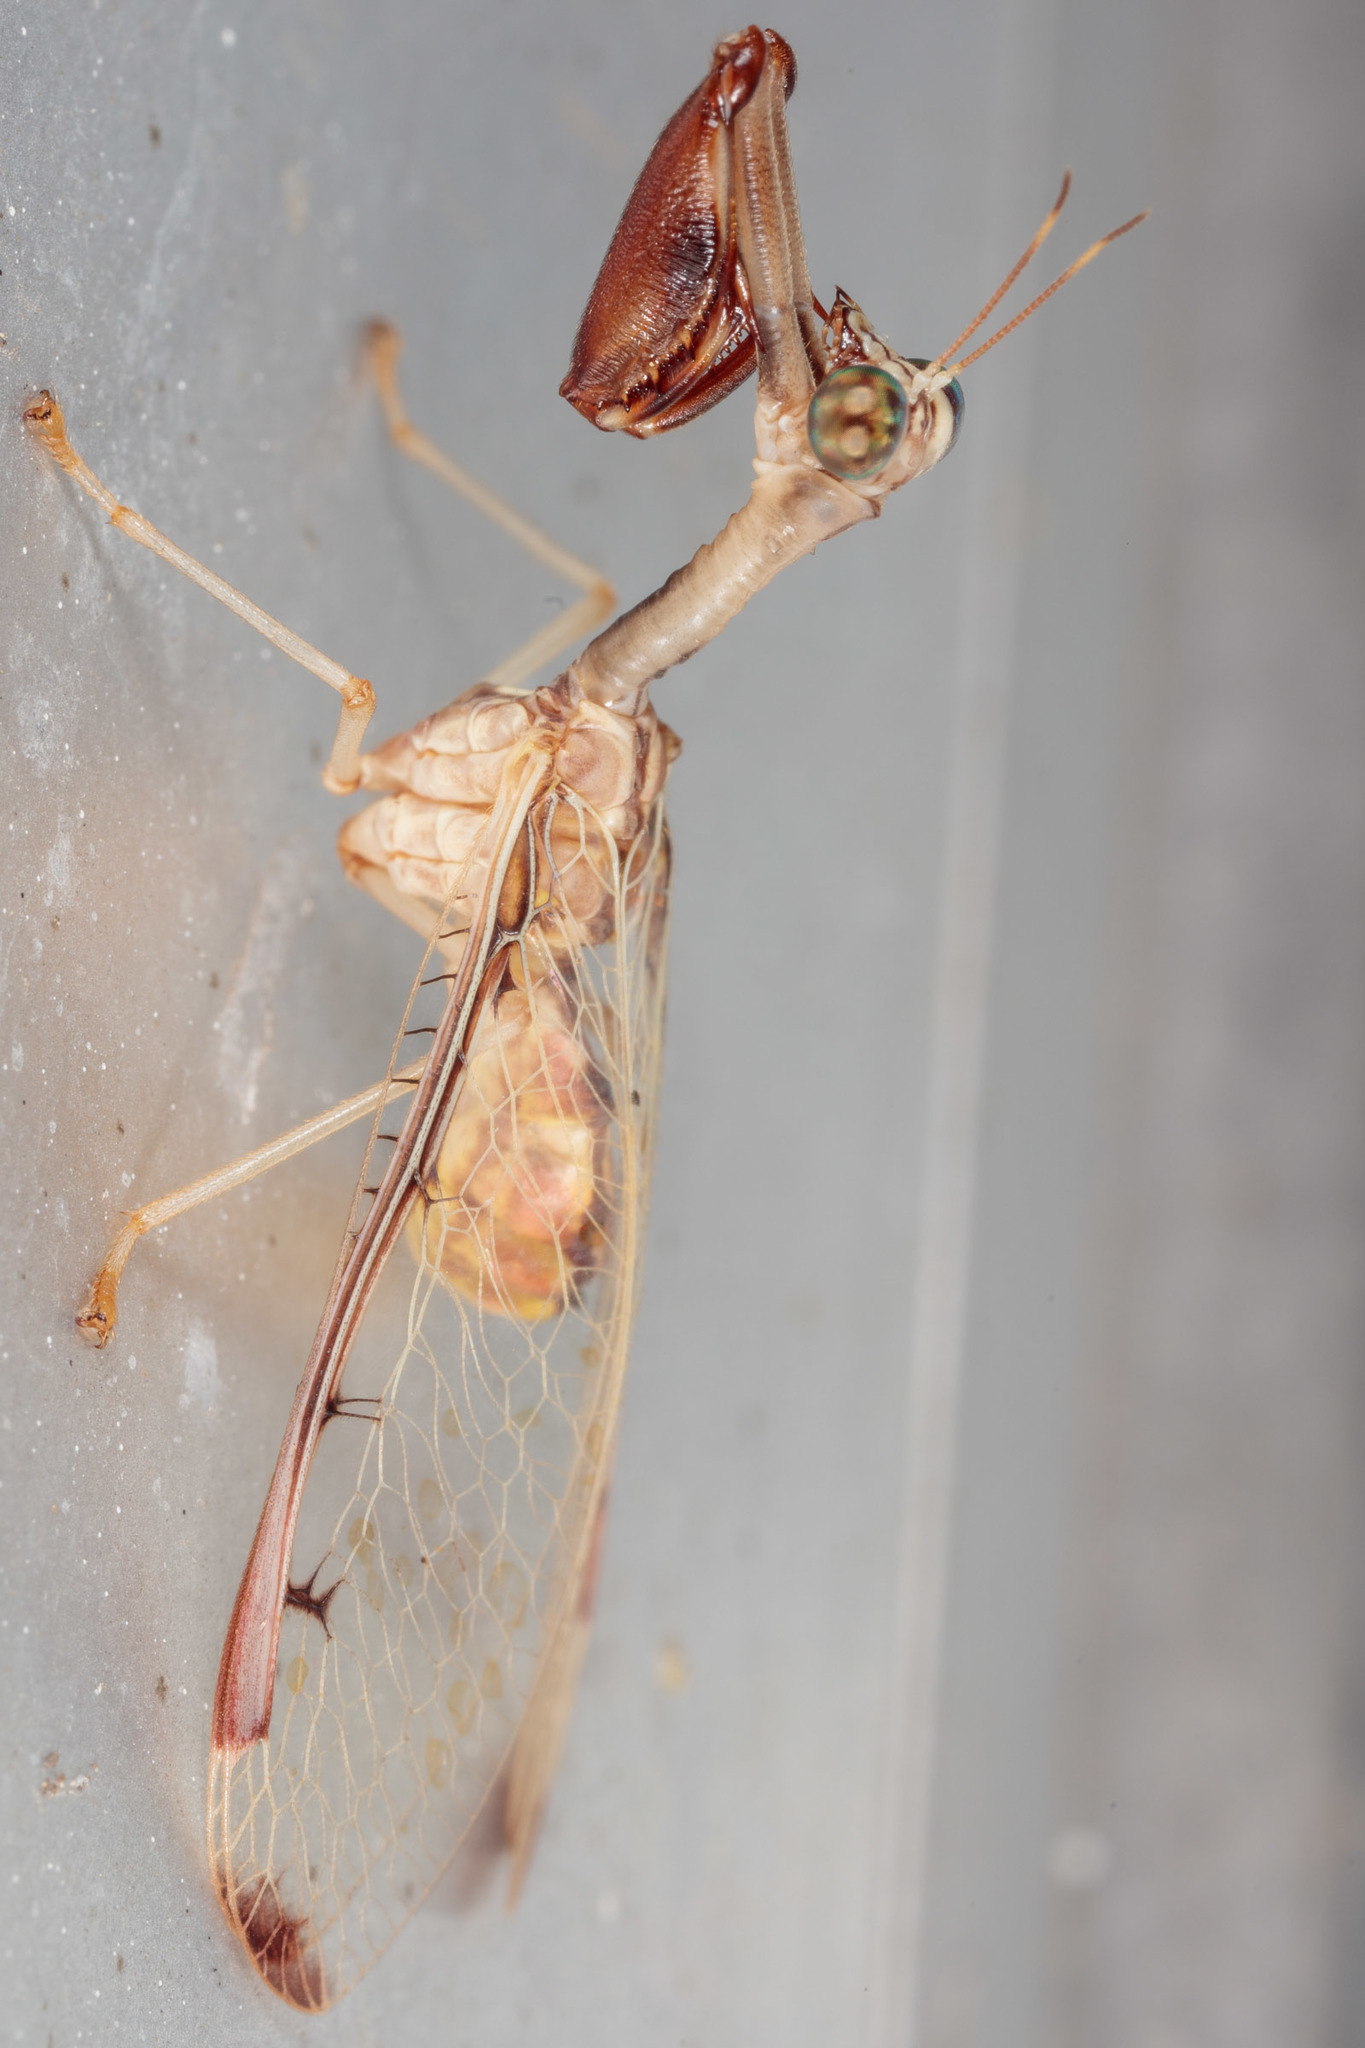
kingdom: Animalia
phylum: Arthropoda
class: Insecta
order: Neuroptera
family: Mantispidae
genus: Dicromantispa
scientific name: Dicromantispa interrupta
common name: Four-spotted mantidfly
